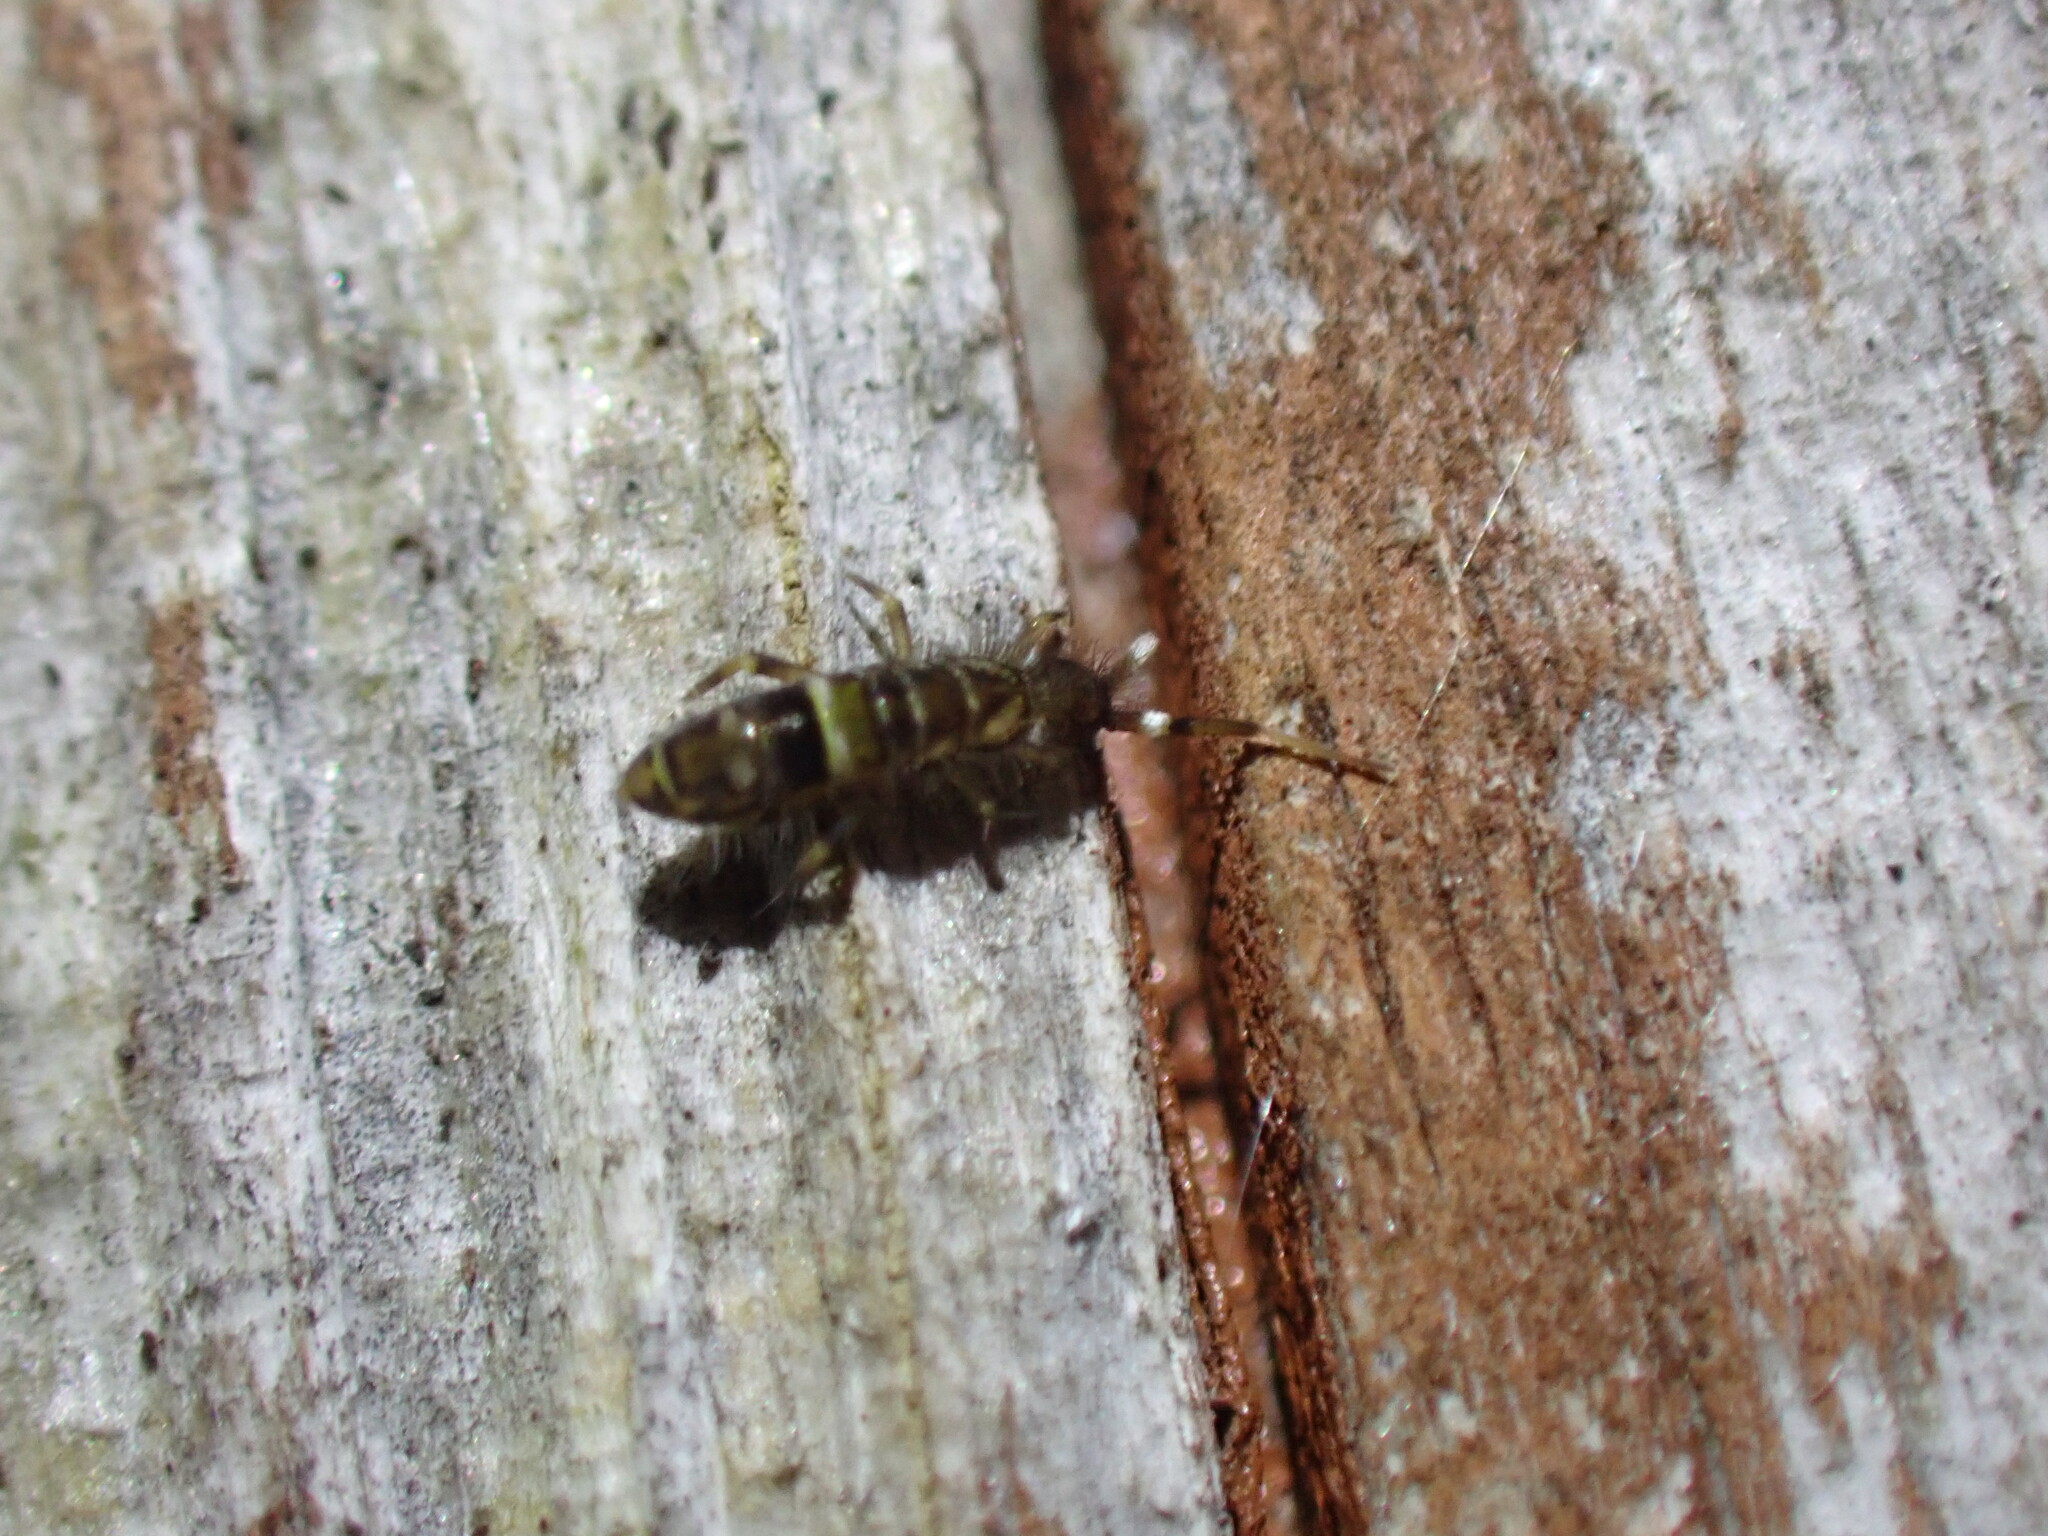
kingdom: Animalia
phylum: Arthropoda
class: Collembola
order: Entomobryomorpha
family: Orchesellidae
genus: Orchesella
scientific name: Orchesella cincta
